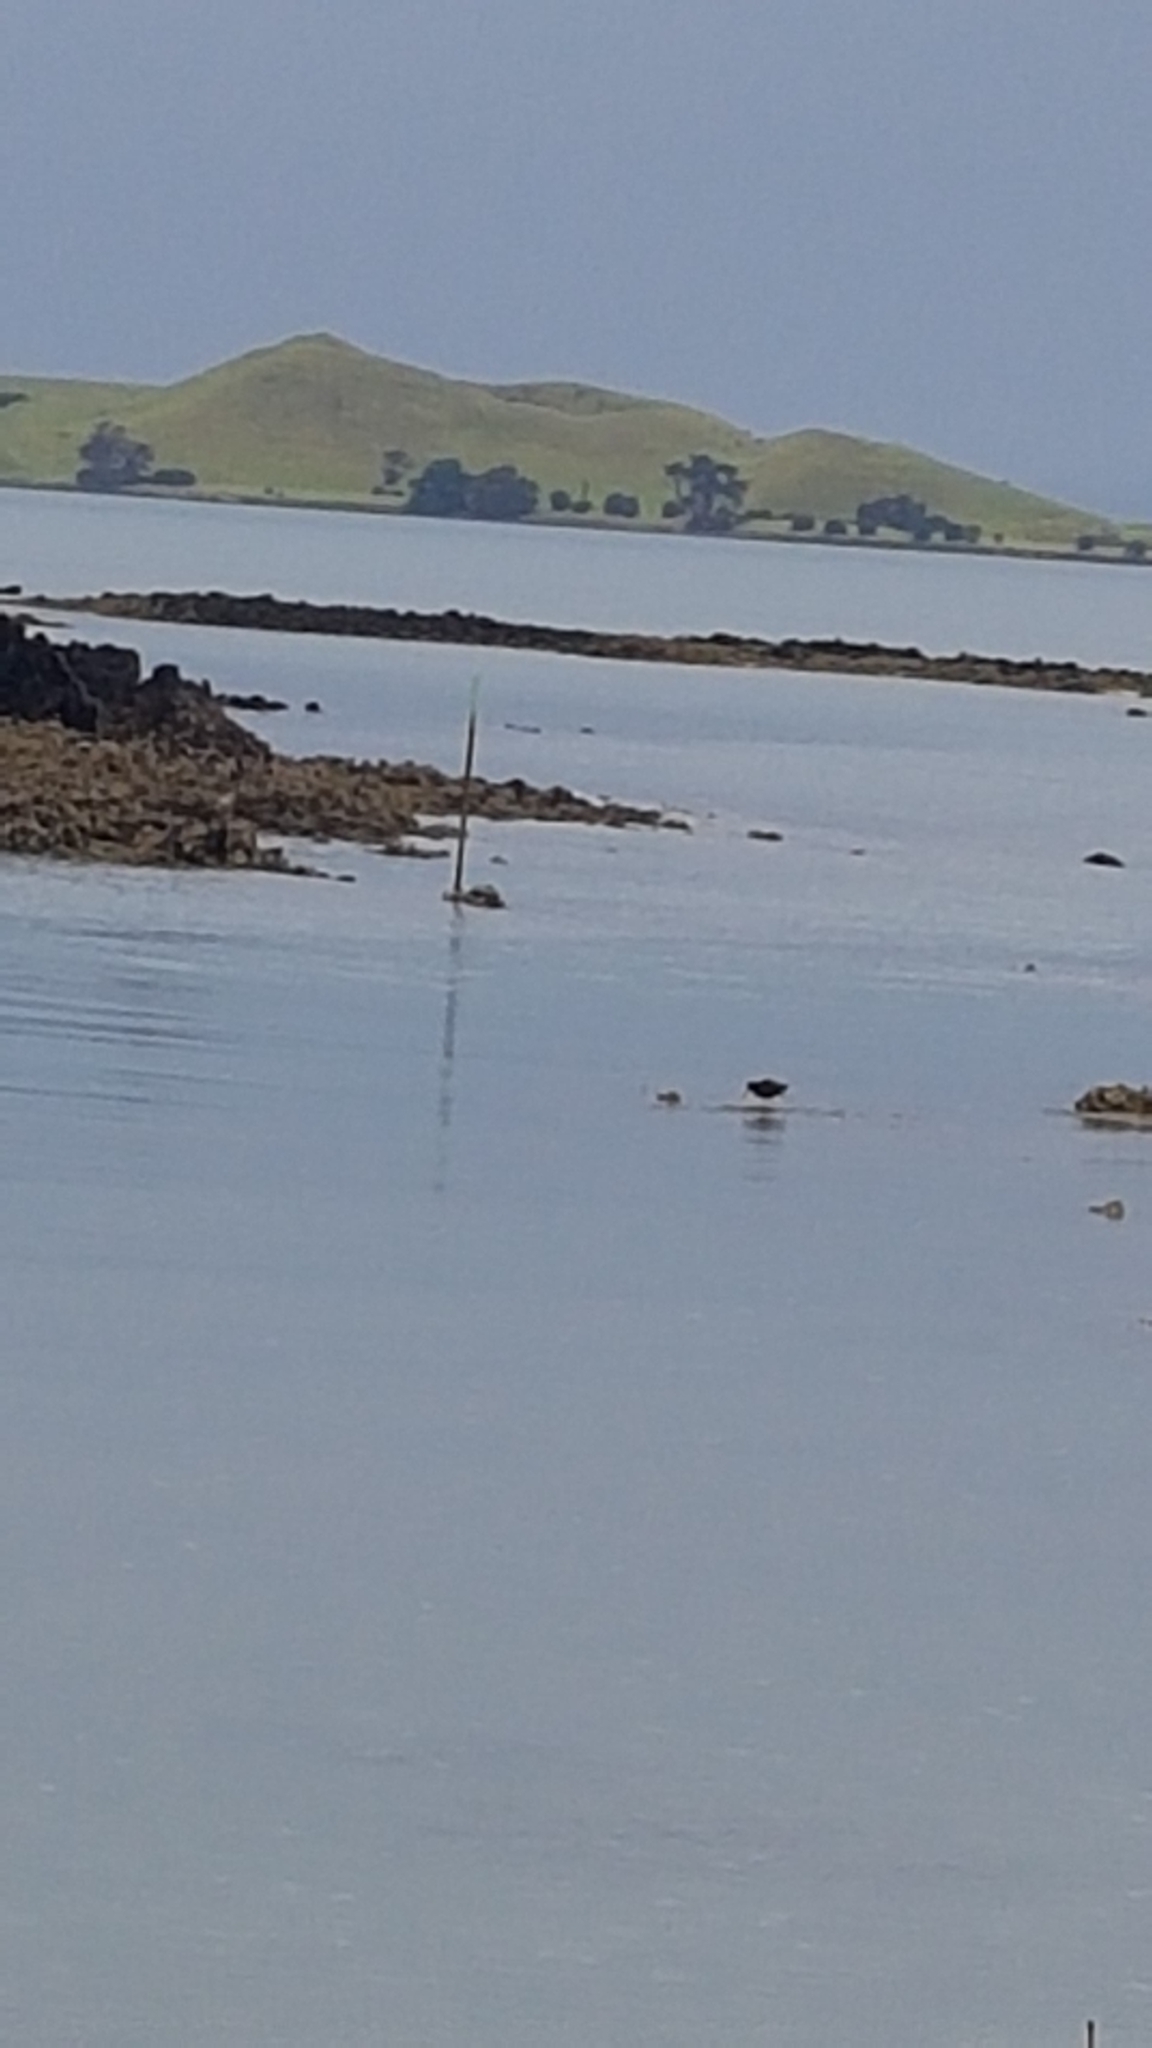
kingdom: Animalia
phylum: Chordata
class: Aves
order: Charadriiformes
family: Haematopodidae
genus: Haematopus
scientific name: Haematopus unicolor
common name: Variable oystercatcher
